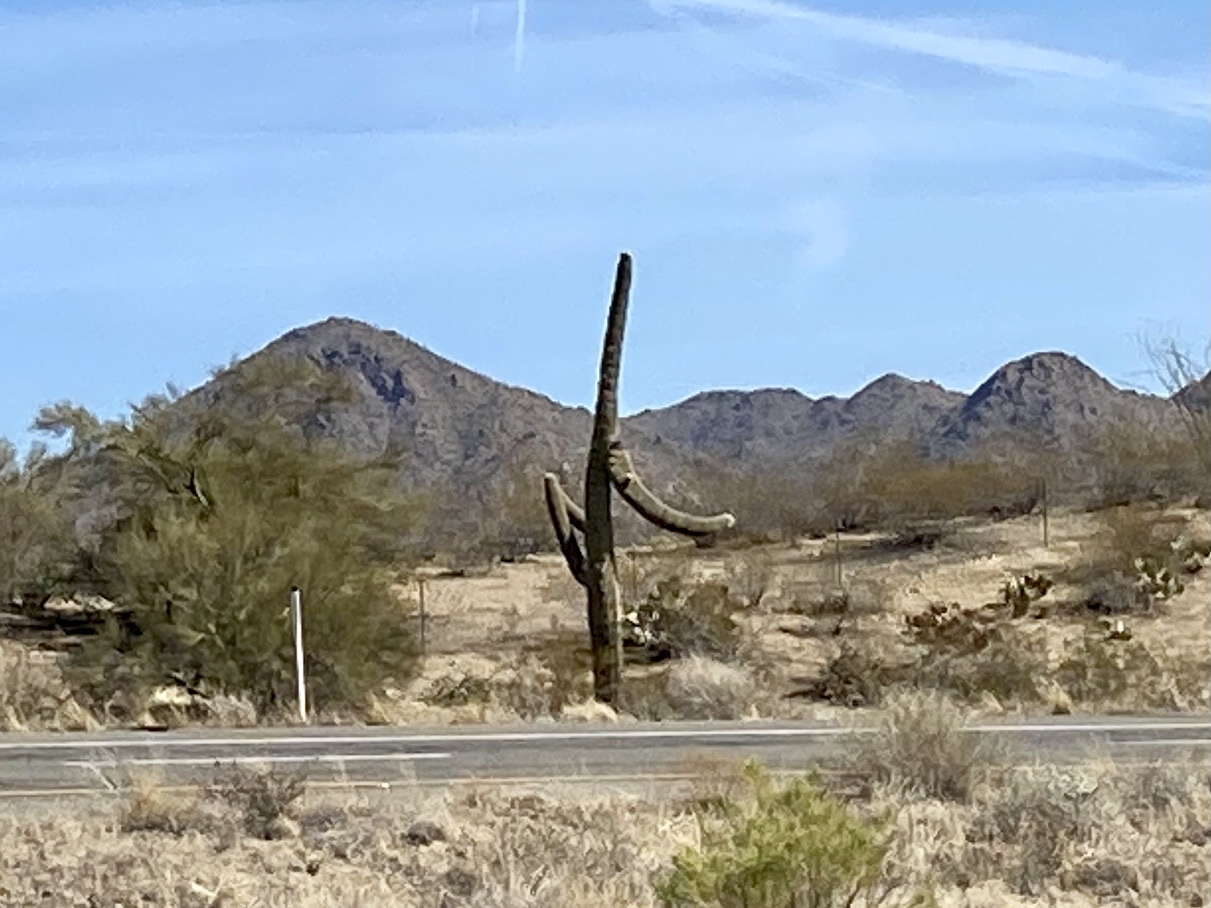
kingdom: Plantae
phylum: Tracheophyta
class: Magnoliopsida
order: Caryophyllales
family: Cactaceae
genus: Carnegiea
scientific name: Carnegiea gigantea
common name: Saguaro
